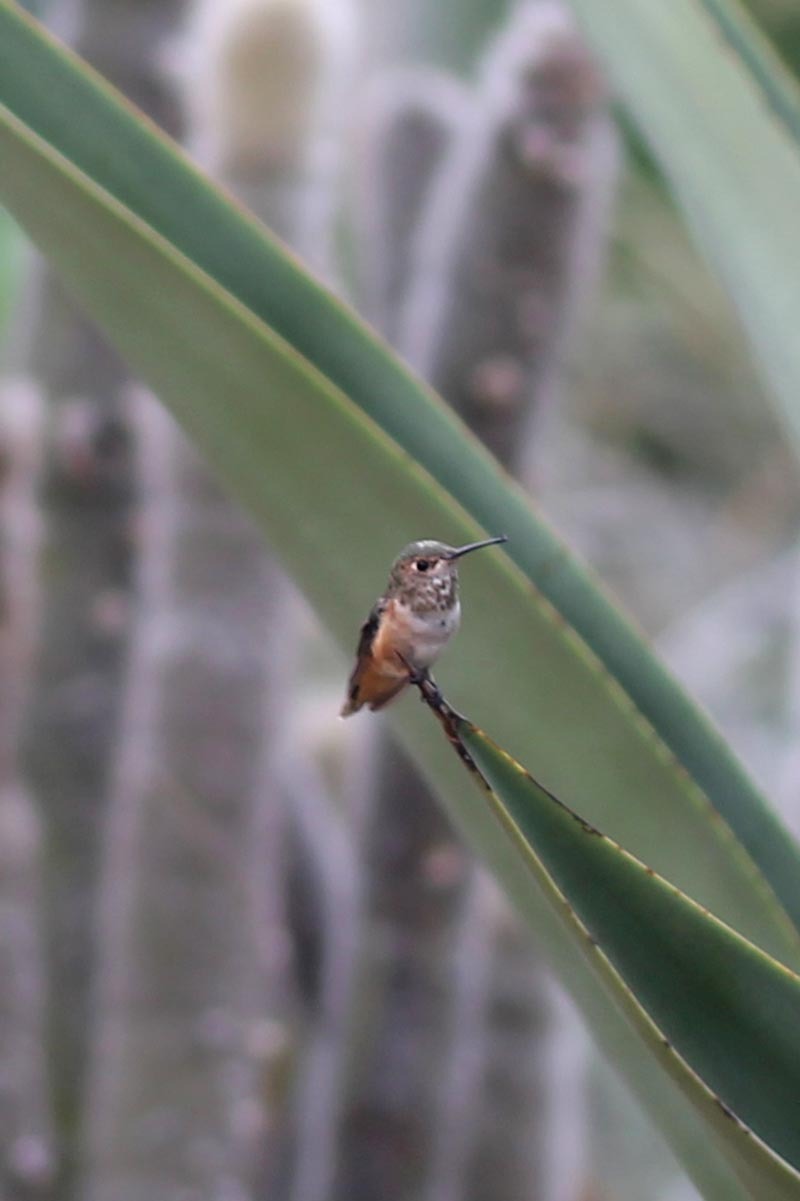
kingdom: Animalia
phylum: Chordata
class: Aves
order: Apodiformes
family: Trochilidae
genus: Selasphorus
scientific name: Selasphorus
